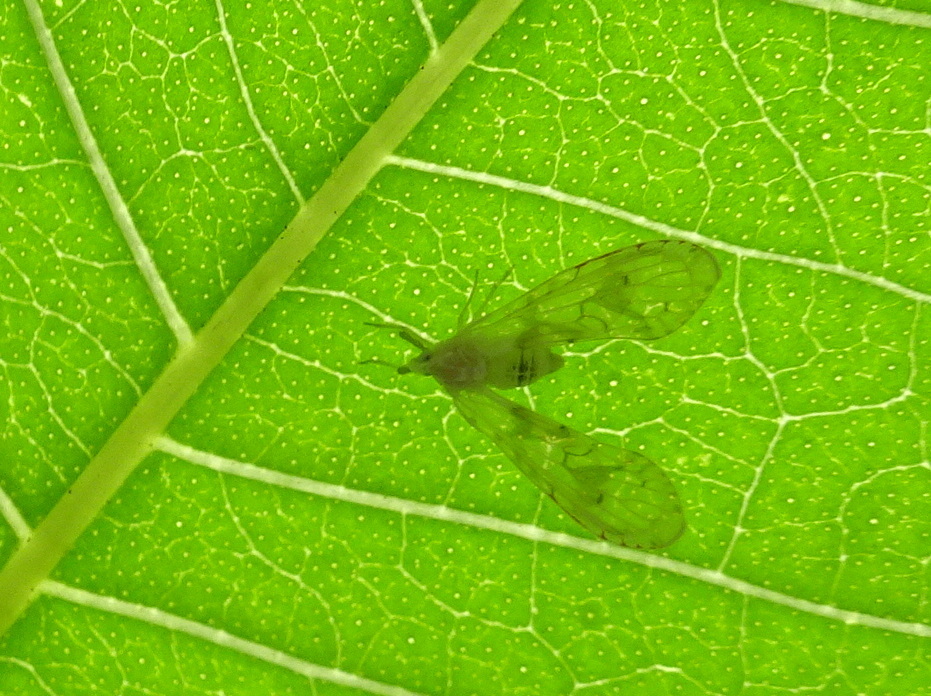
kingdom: Animalia
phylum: Arthropoda
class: Insecta
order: Hemiptera
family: Derbidae
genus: Anotia
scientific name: Anotia robertsonii
